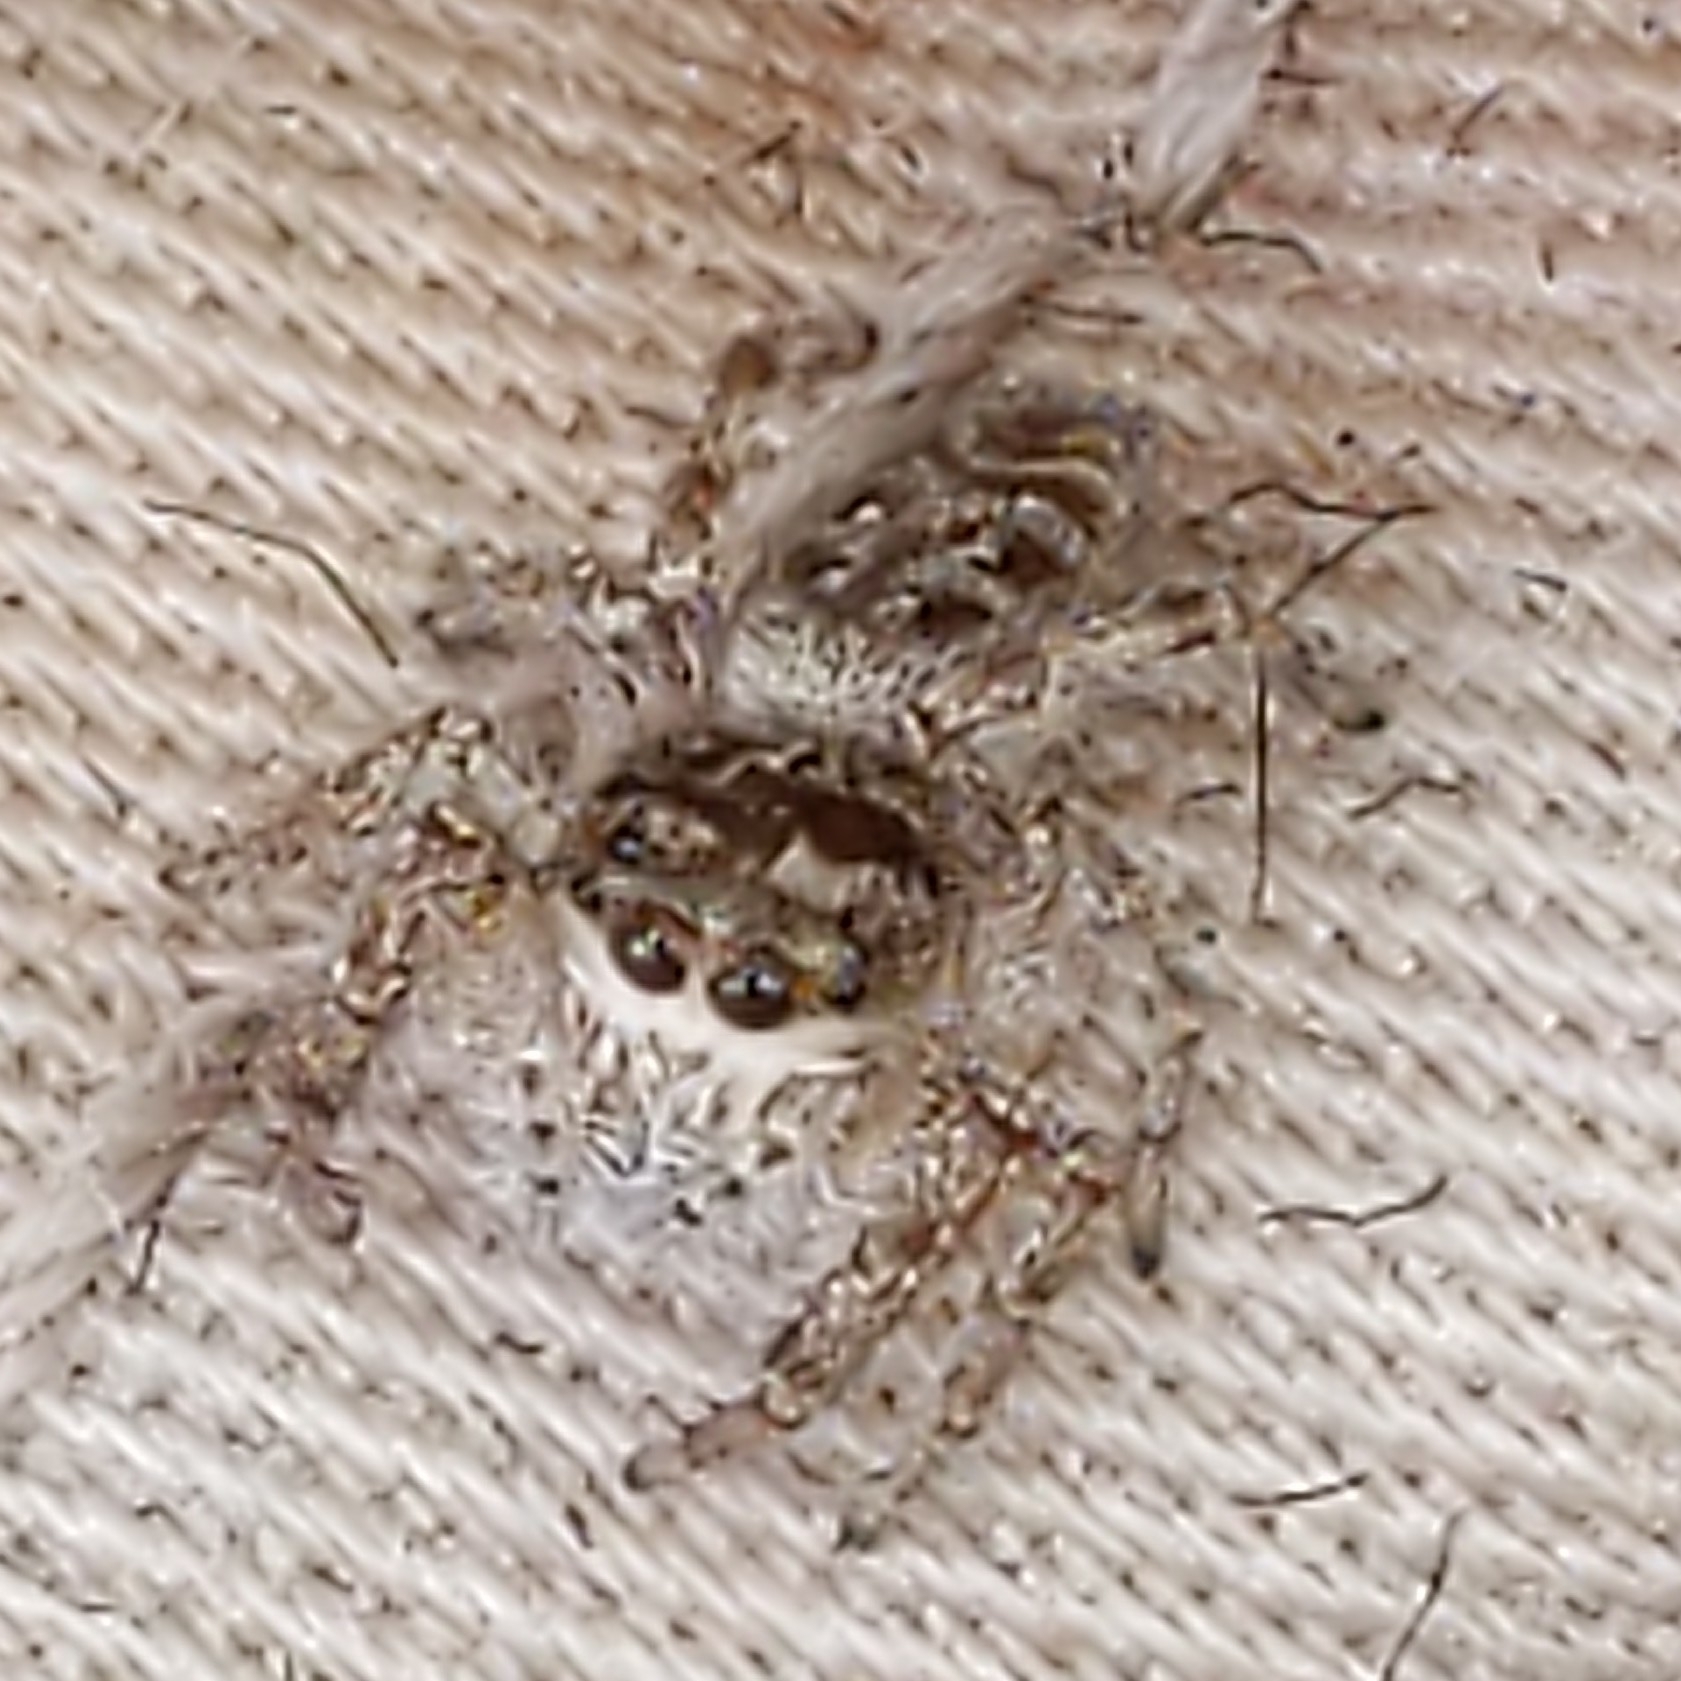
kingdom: Animalia
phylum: Arthropoda
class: Arachnida
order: Araneae
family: Salticidae
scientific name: Salticidae
